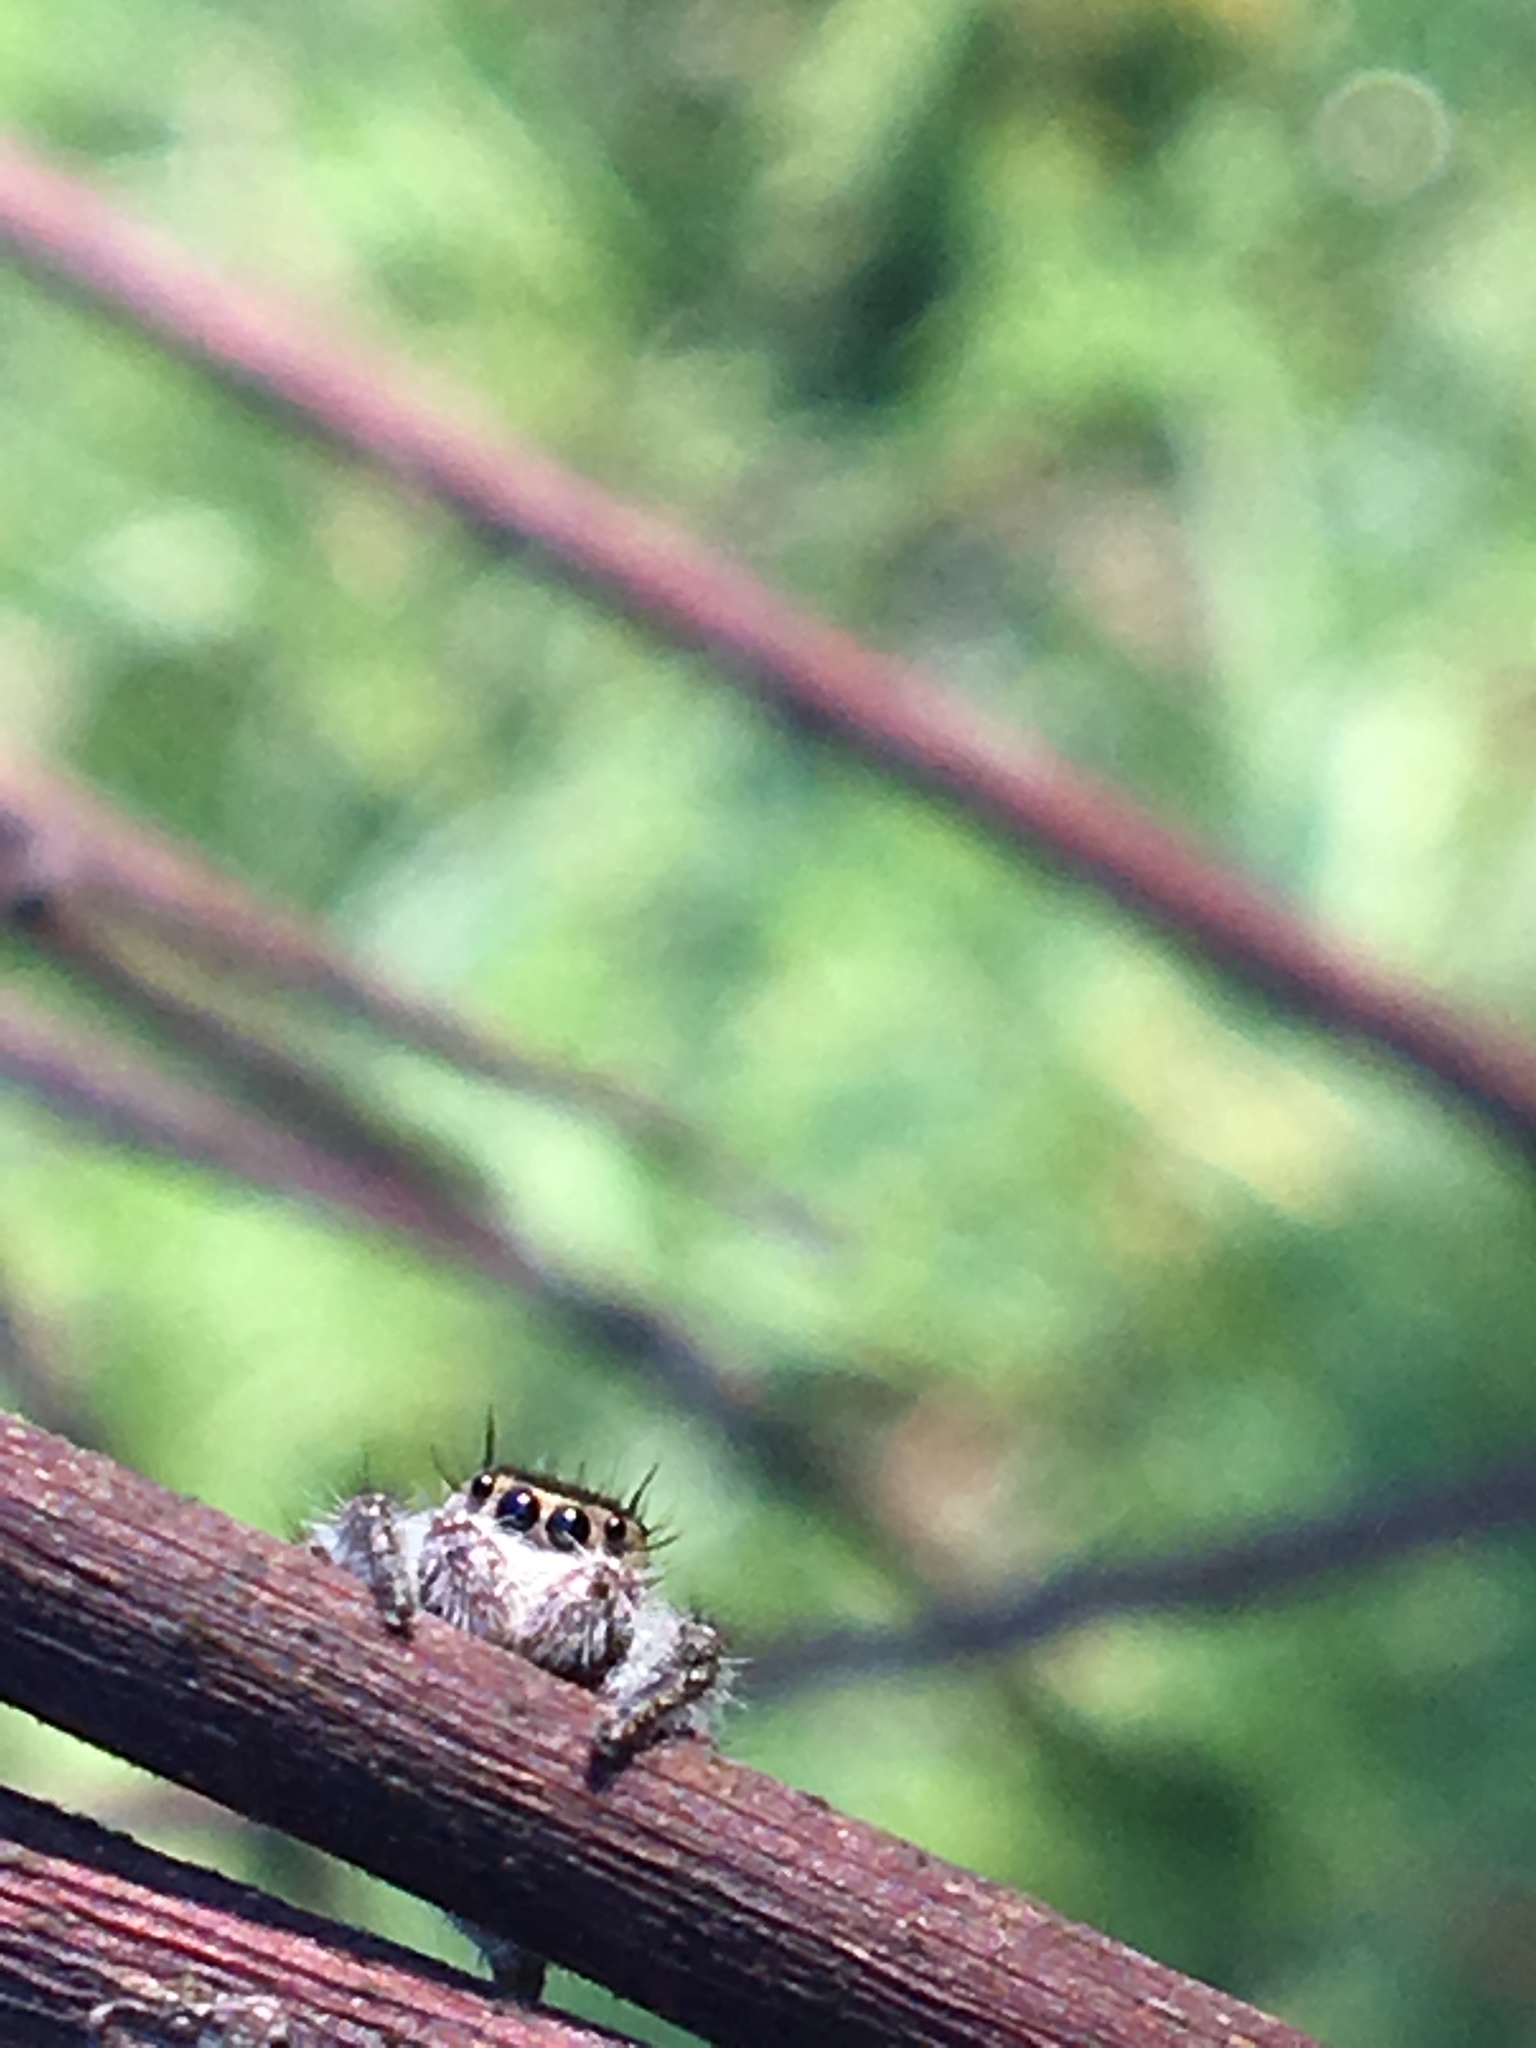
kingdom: Animalia
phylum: Arthropoda
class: Arachnida
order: Araneae
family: Salticidae
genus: Phidippus
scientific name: Phidippus princeps
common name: Grayish jumping spider
